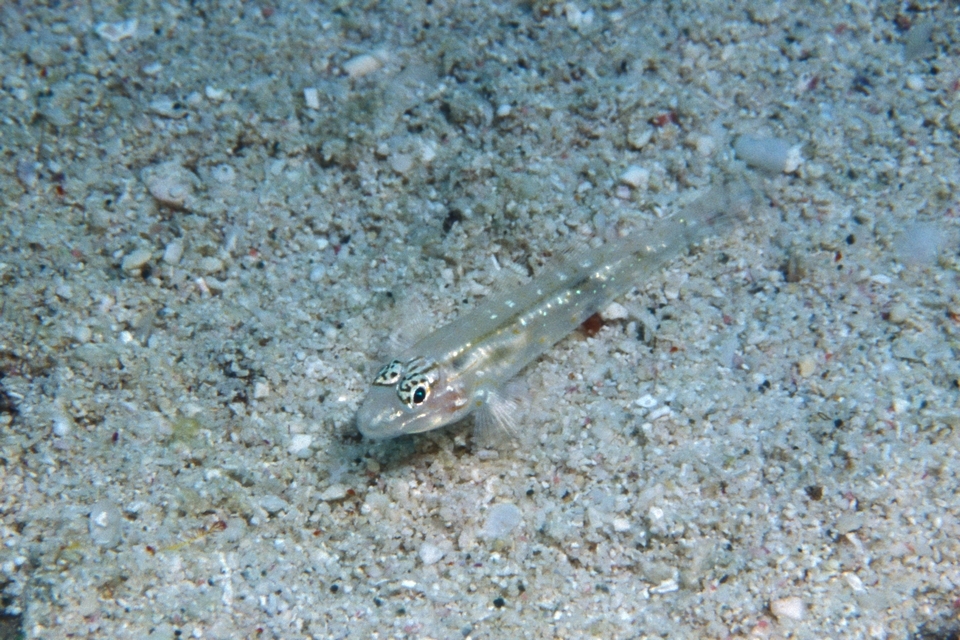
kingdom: Animalia
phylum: Chordata
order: Perciformes
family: Gobiidae
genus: Coryphopterus
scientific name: Coryphopterus venezuelae
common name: Sand-canyon goby
